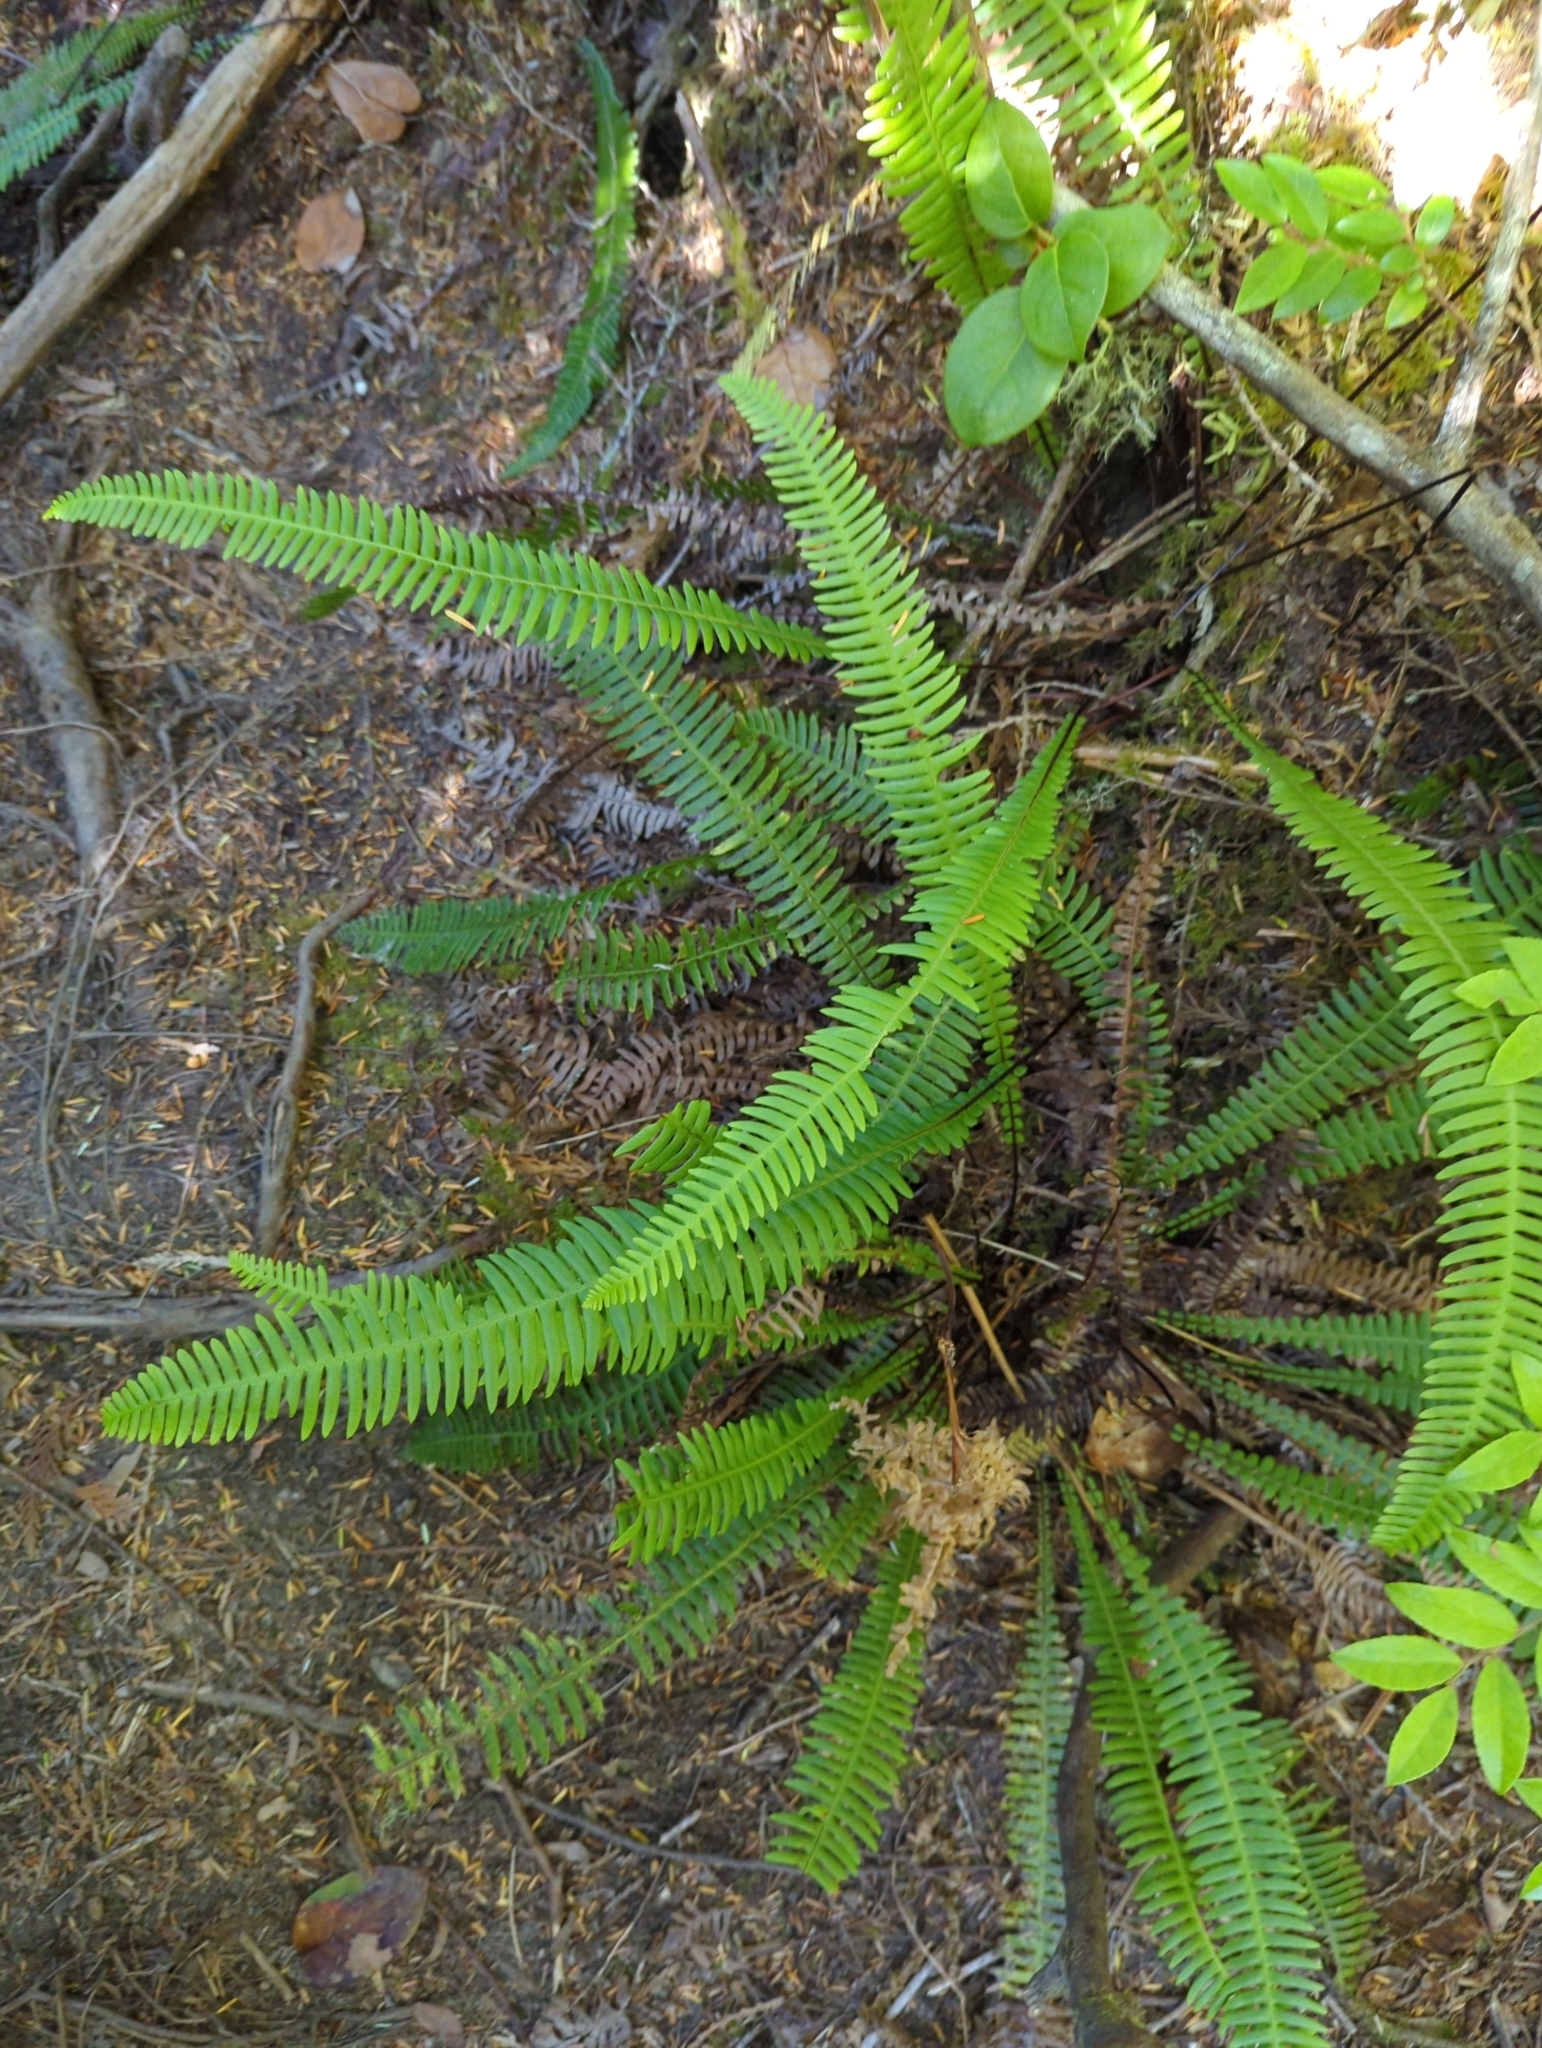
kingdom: Plantae
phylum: Tracheophyta
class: Polypodiopsida
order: Polypodiales
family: Blechnaceae
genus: Struthiopteris
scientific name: Struthiopteris spicant
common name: Deer fern
